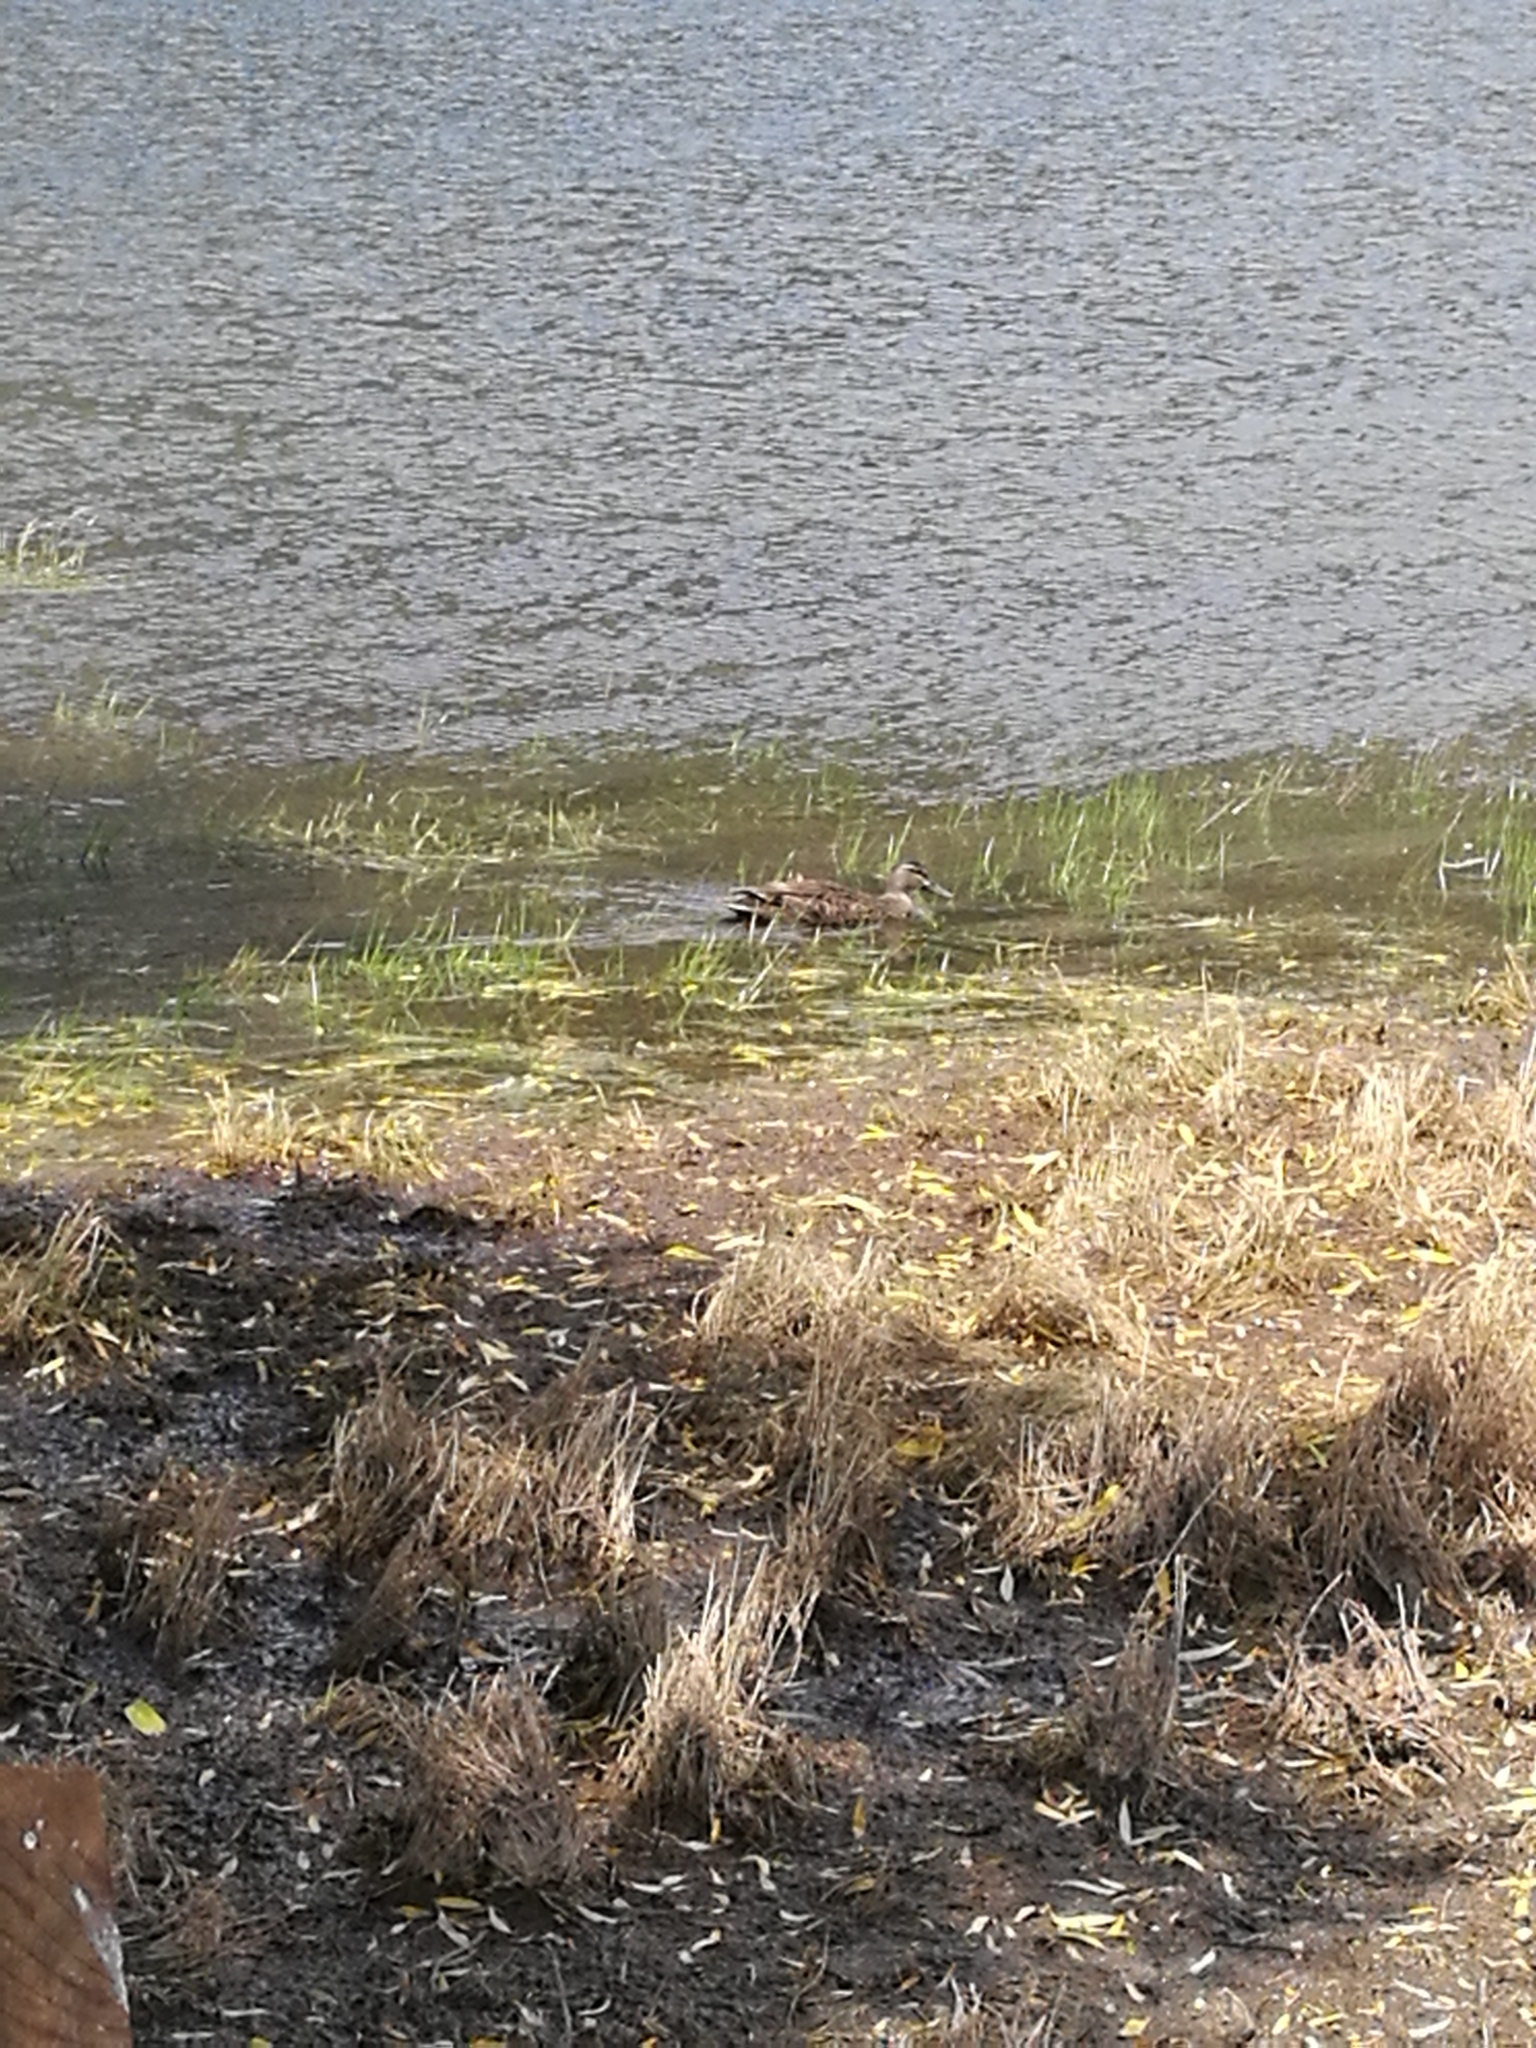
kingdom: Animalia
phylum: Chordata
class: Aves
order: Anseriformes
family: Anatidae
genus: Anas
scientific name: Anas
